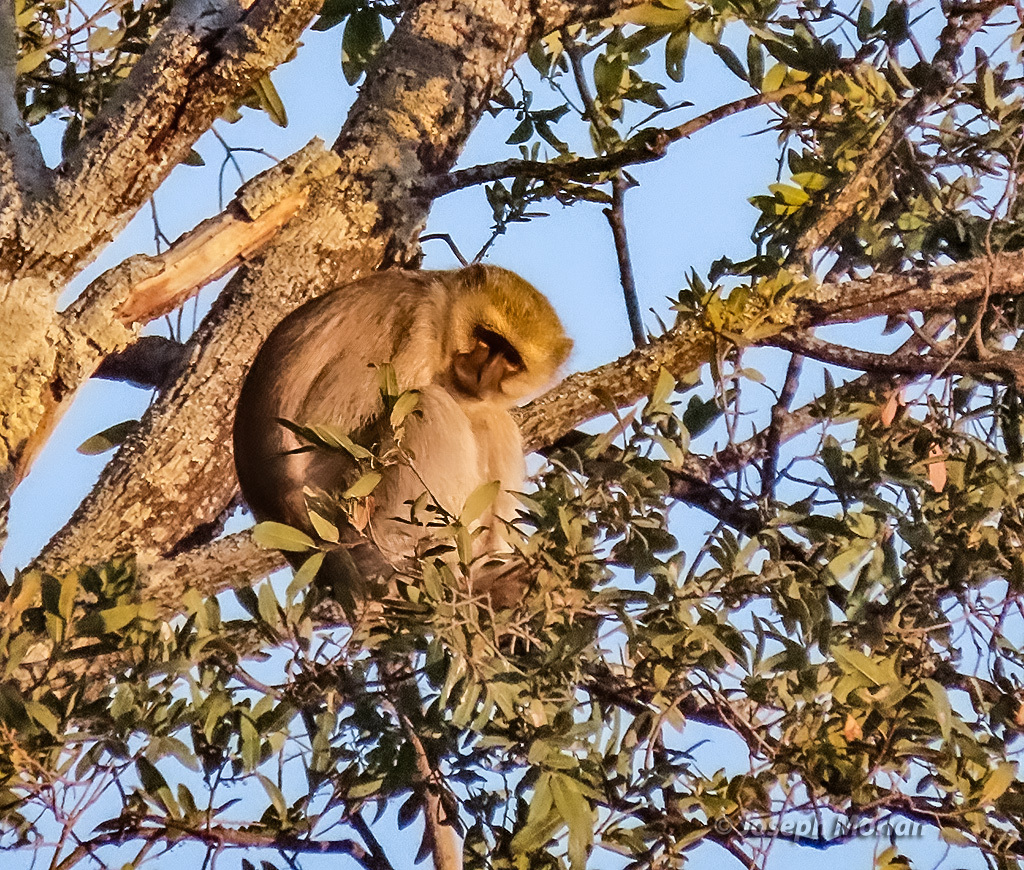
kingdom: Animalia
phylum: Chordata
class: Mammalia
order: Primates
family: Cercopithecidae
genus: Chlorocebus
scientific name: Chlorocebus cynosuros
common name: Malbrouck
